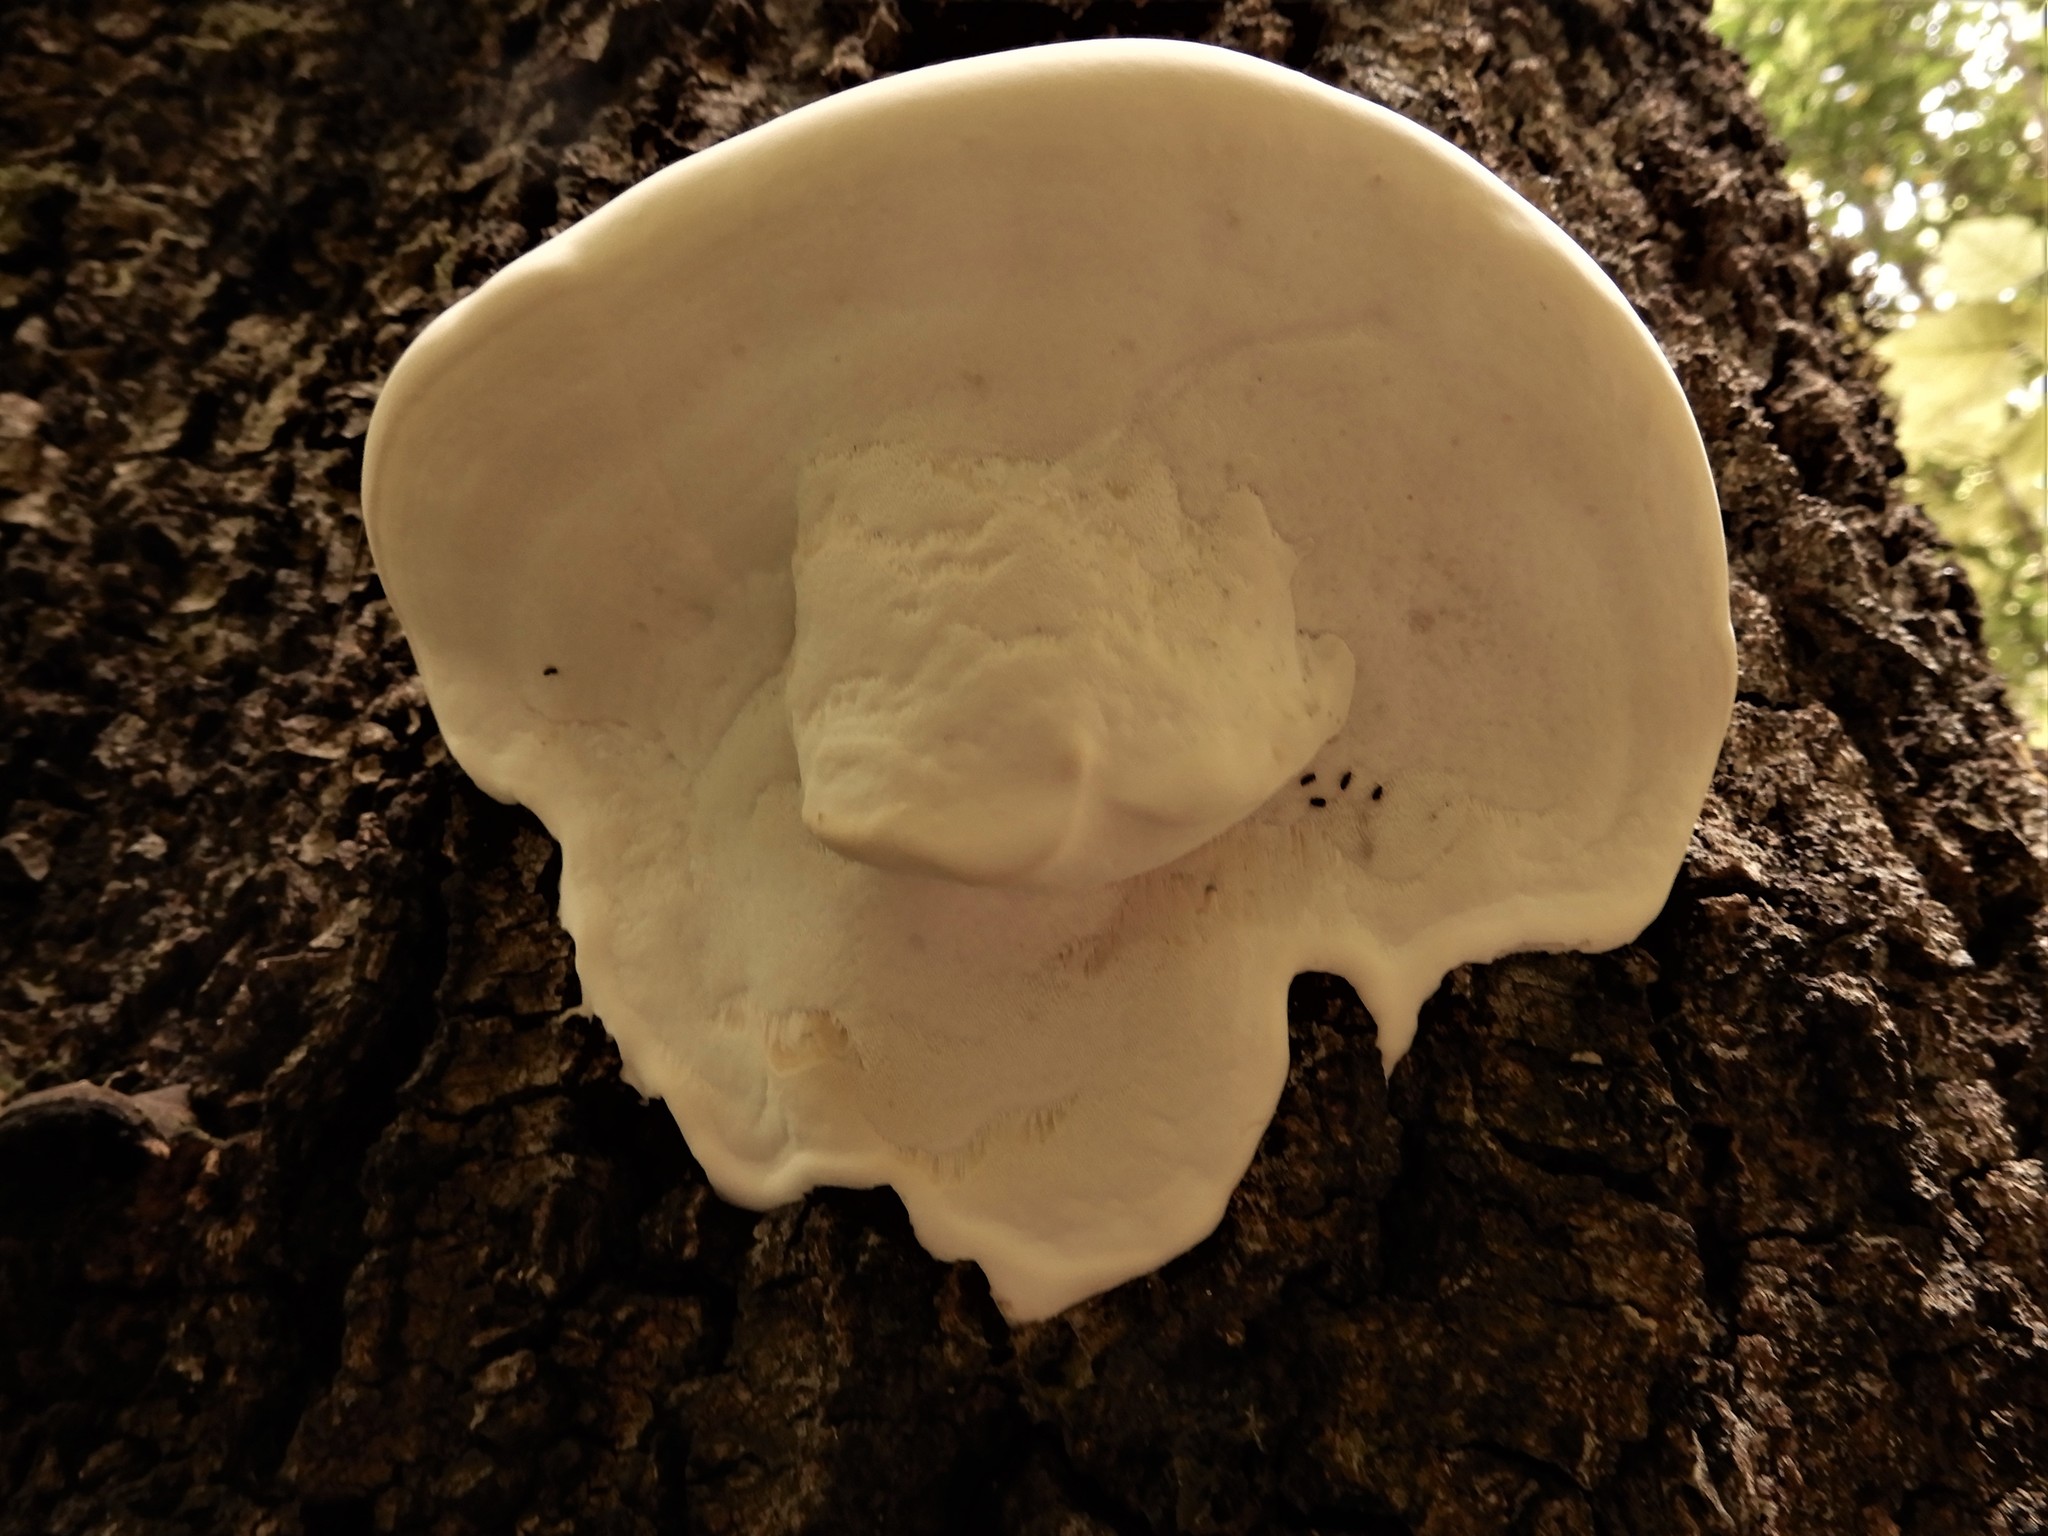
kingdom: Fungi
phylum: Basidiomycota
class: Agaricomycetes
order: Polyporales
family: Fomitopsidaceae
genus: Pilatoporus
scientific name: Pilatoporus hemitephrus
